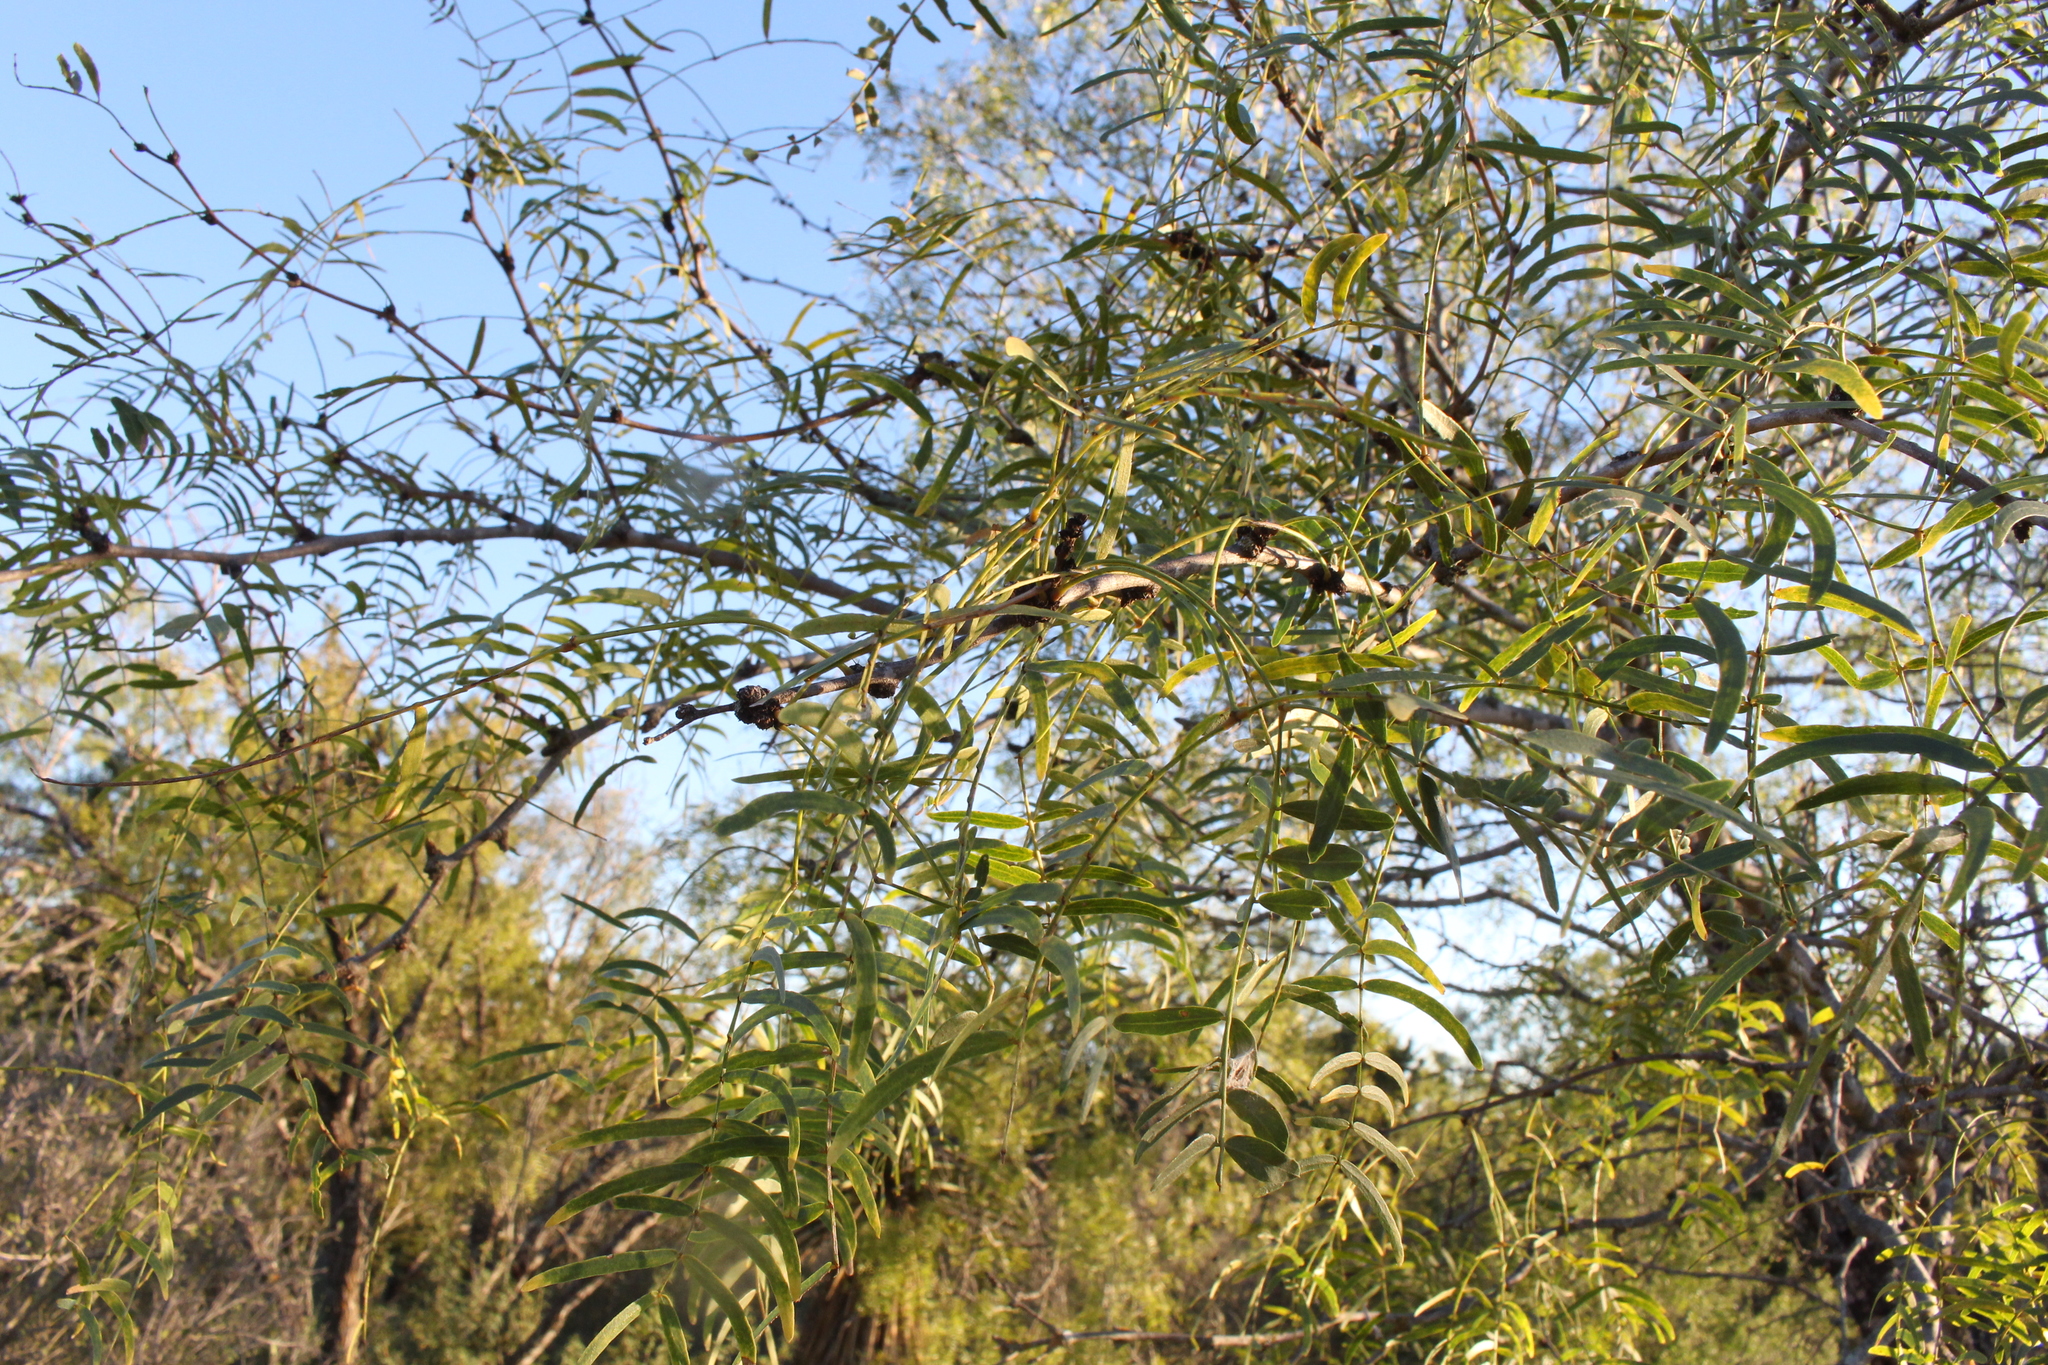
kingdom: Plantae
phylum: Tracheophyta
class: Magnoliopsida
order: Fabales
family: Fabaceae
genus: Prosopis
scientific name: Prosopis glandulosa
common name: Honey mesquite
